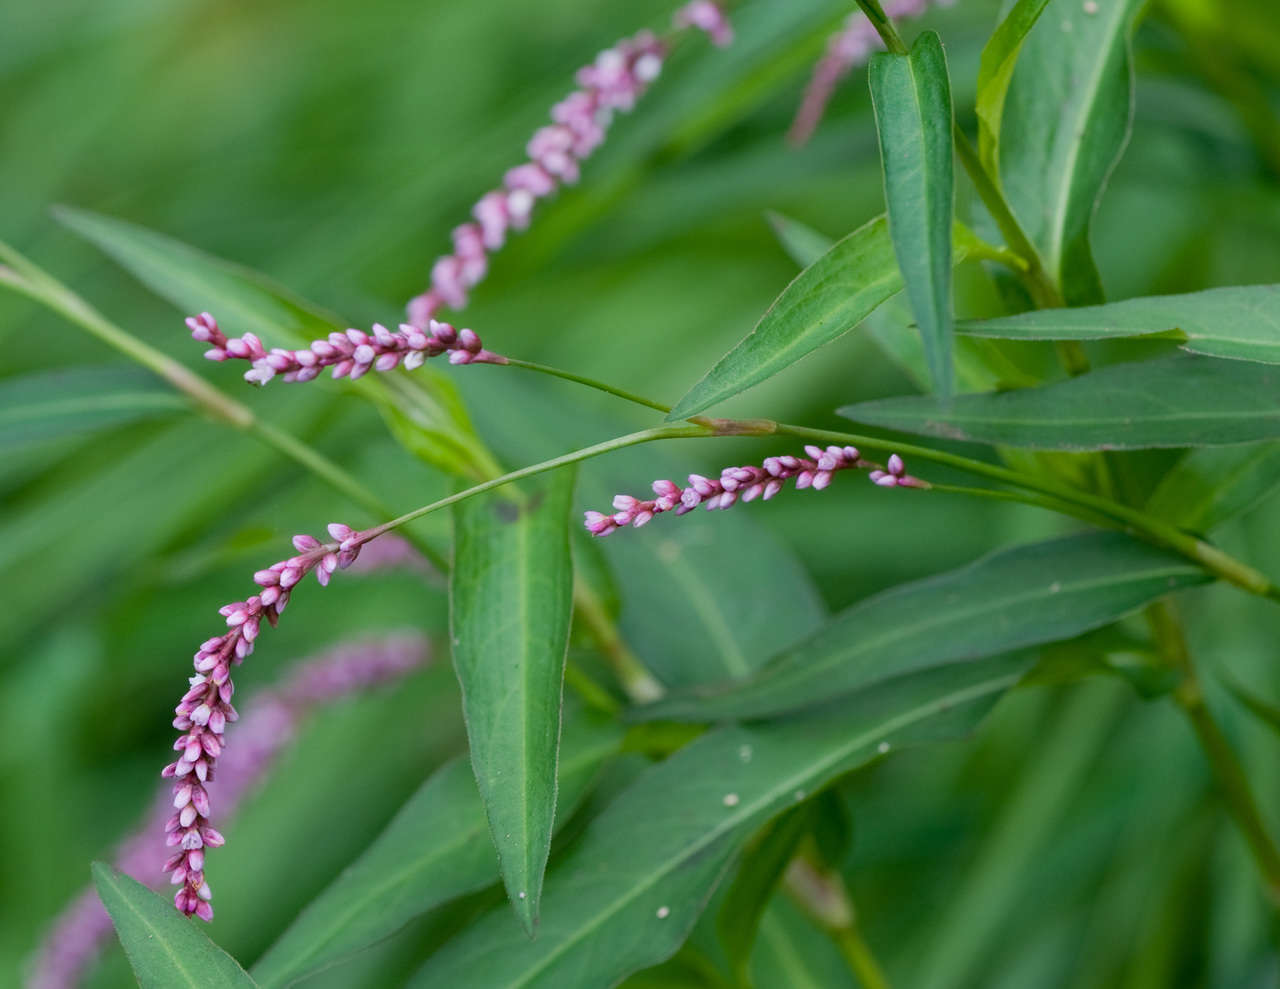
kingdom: Plantae
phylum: Tracheophyta
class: Magnoliopsida
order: Caryophyllales
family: Polygonaceae
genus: Persicaria
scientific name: Persicaria decipiens
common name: Willow-weed
